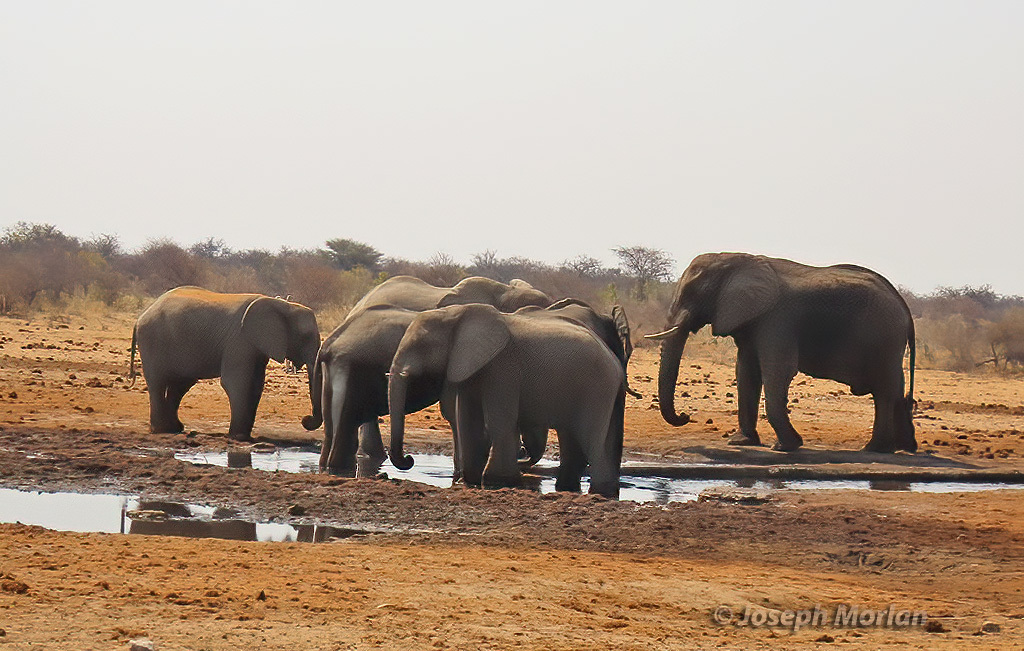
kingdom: Animalia
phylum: Chordata
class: Mammalia
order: Proboscidea
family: Elephantidae
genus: Loxodonta
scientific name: Loxodonta africana
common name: African elephant
